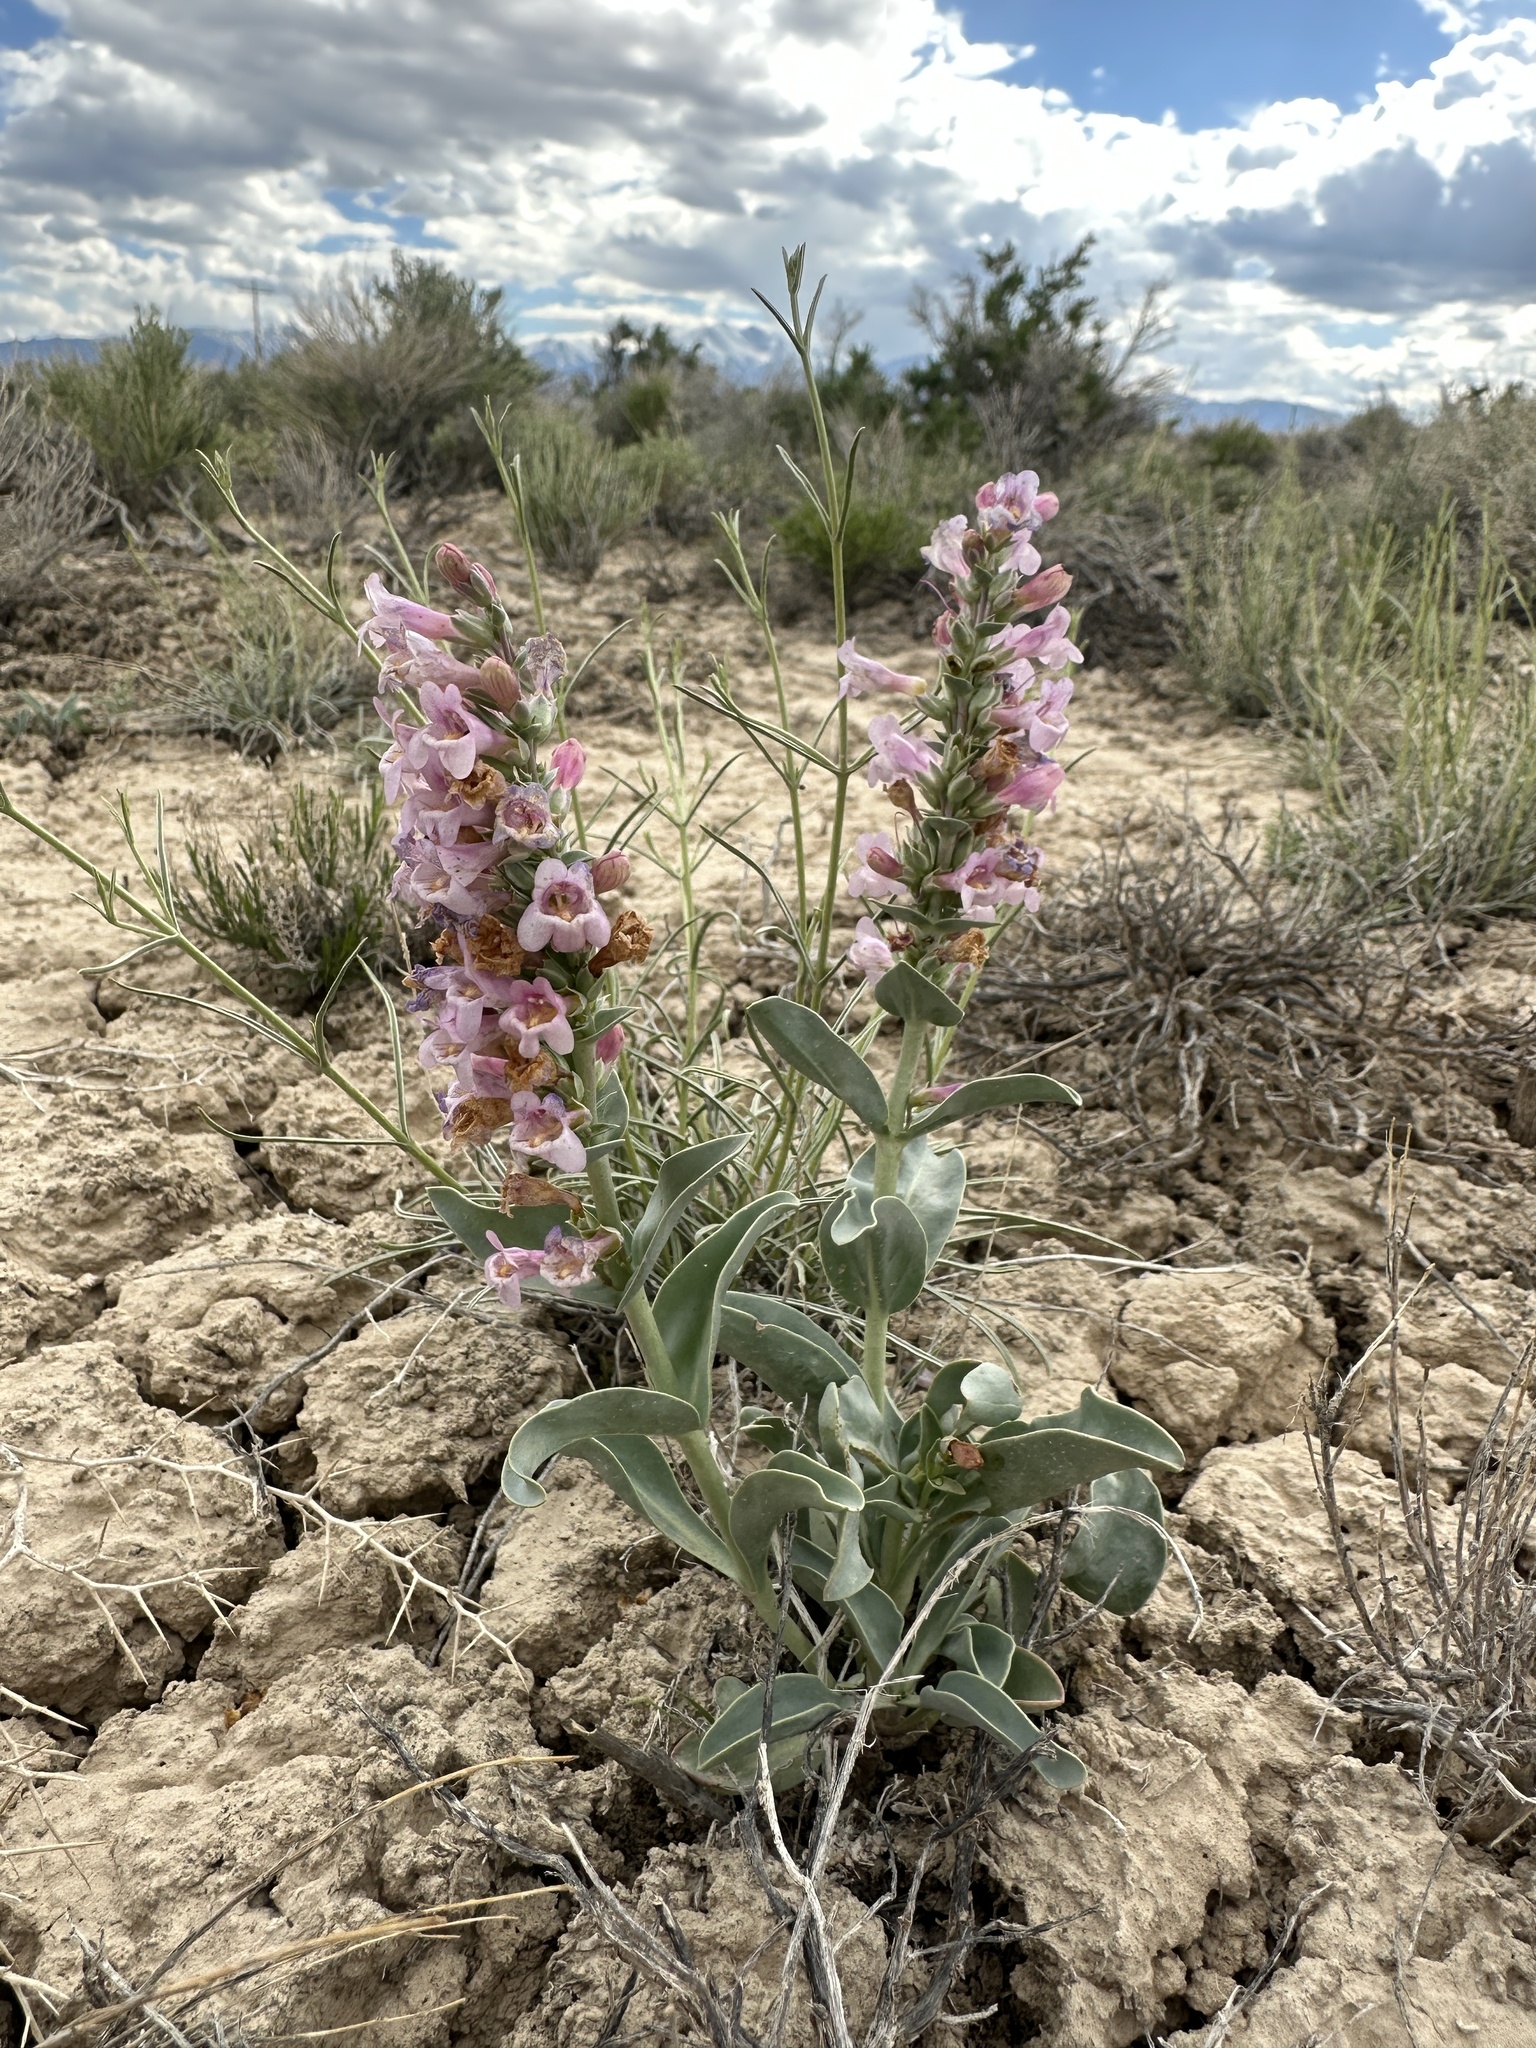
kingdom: Plantae
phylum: Tracheophyta
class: Magnoliopsida
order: Lamiales
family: Plantaginaceae
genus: Penstemon
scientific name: Penstemon immanifestus
